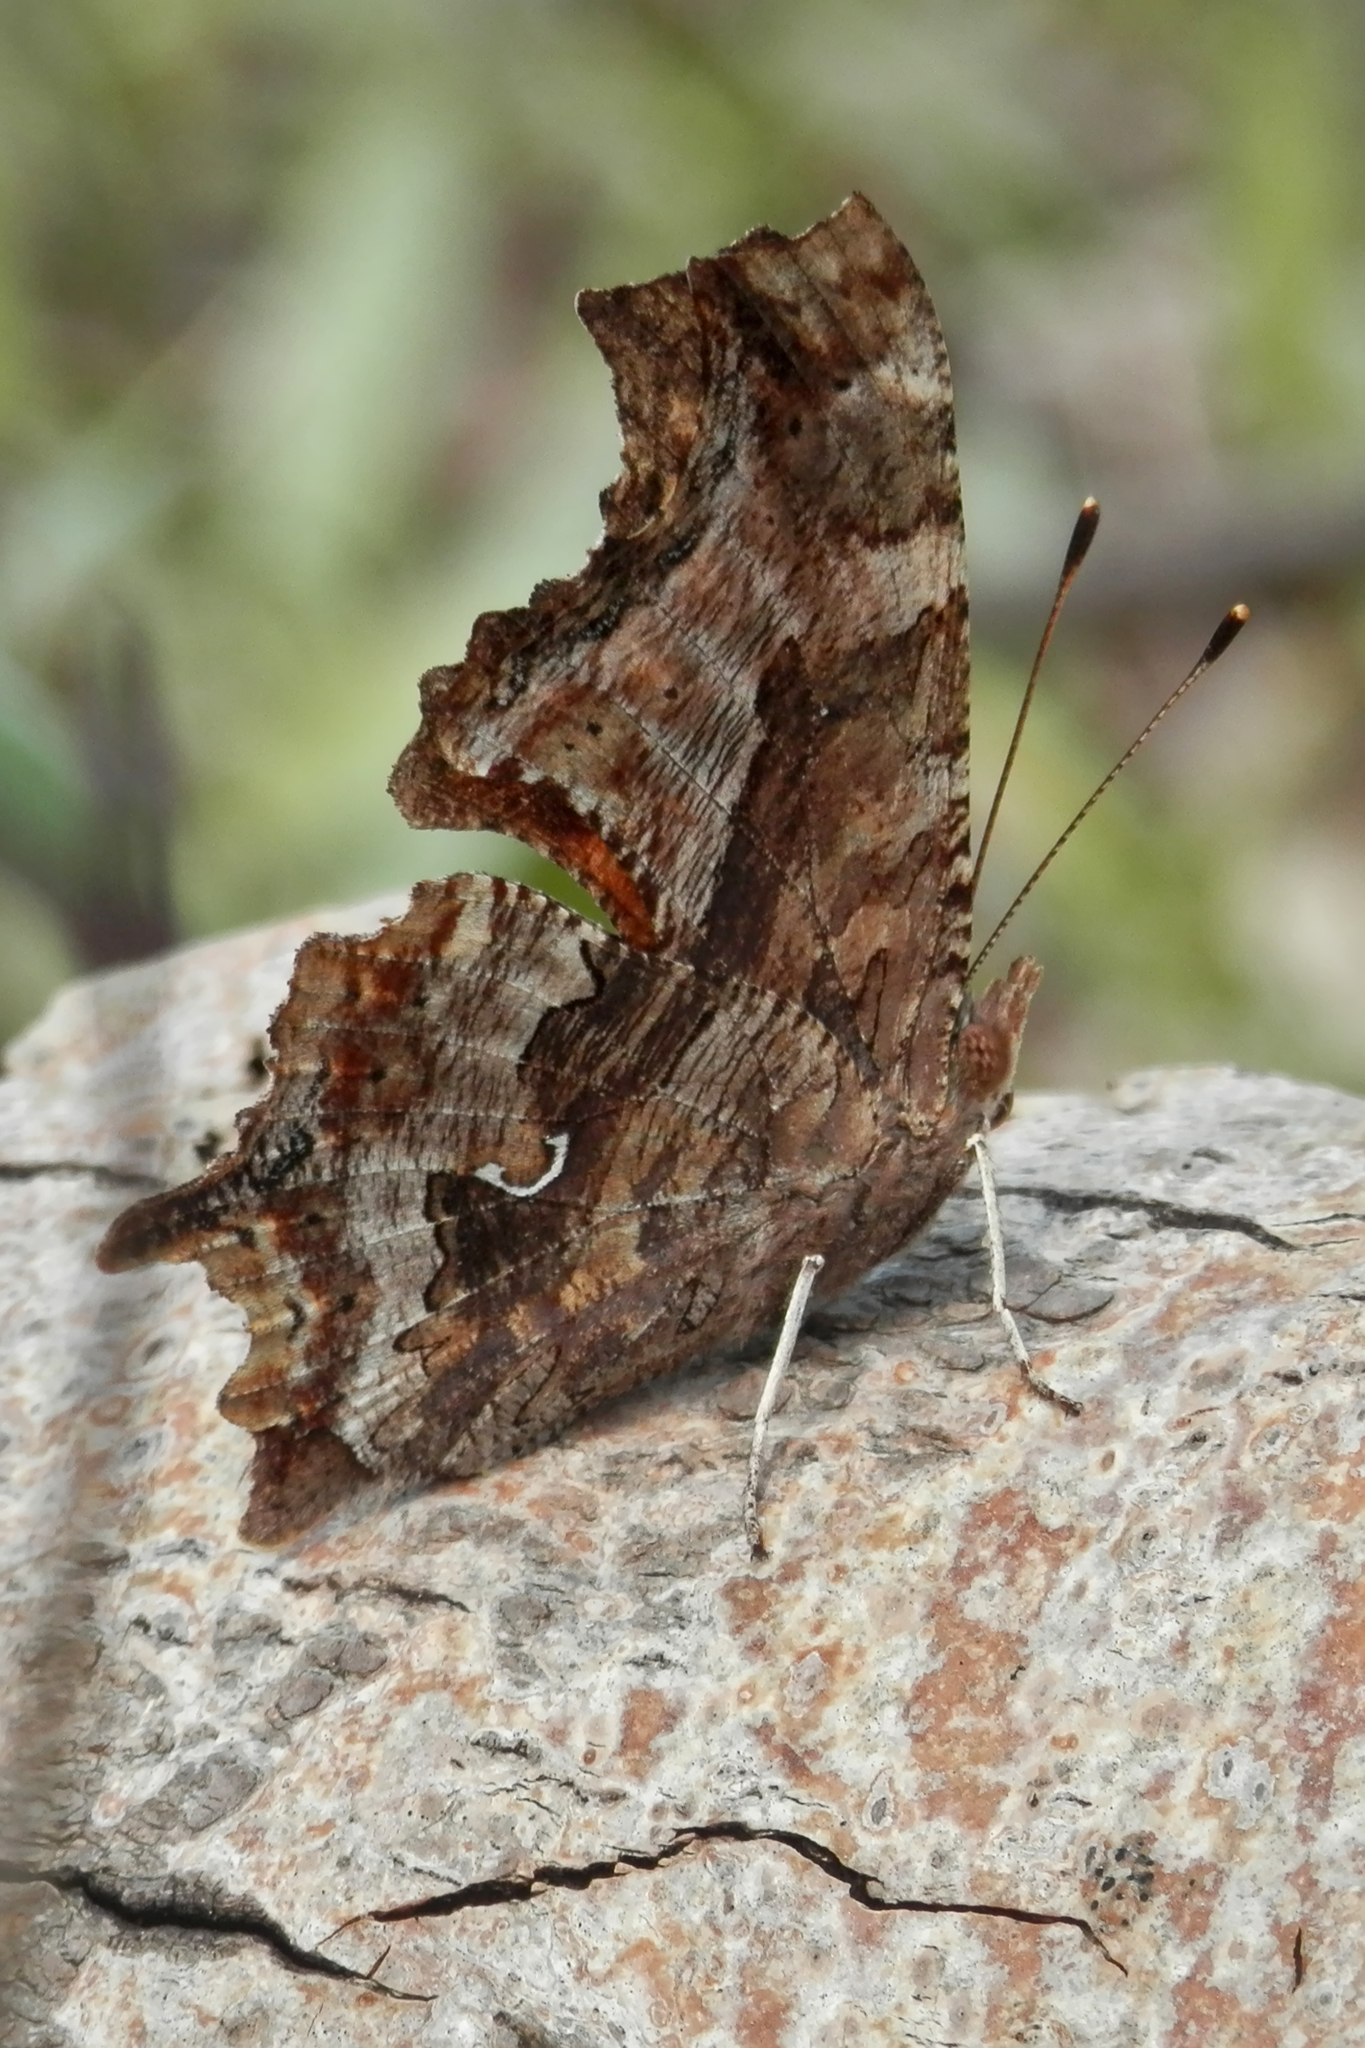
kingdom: Animalia
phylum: Arthropoda
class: Insecta
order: Lepidoptera
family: Nymphalidae
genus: Polygonia
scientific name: Polygonia comma
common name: Eastern comma
